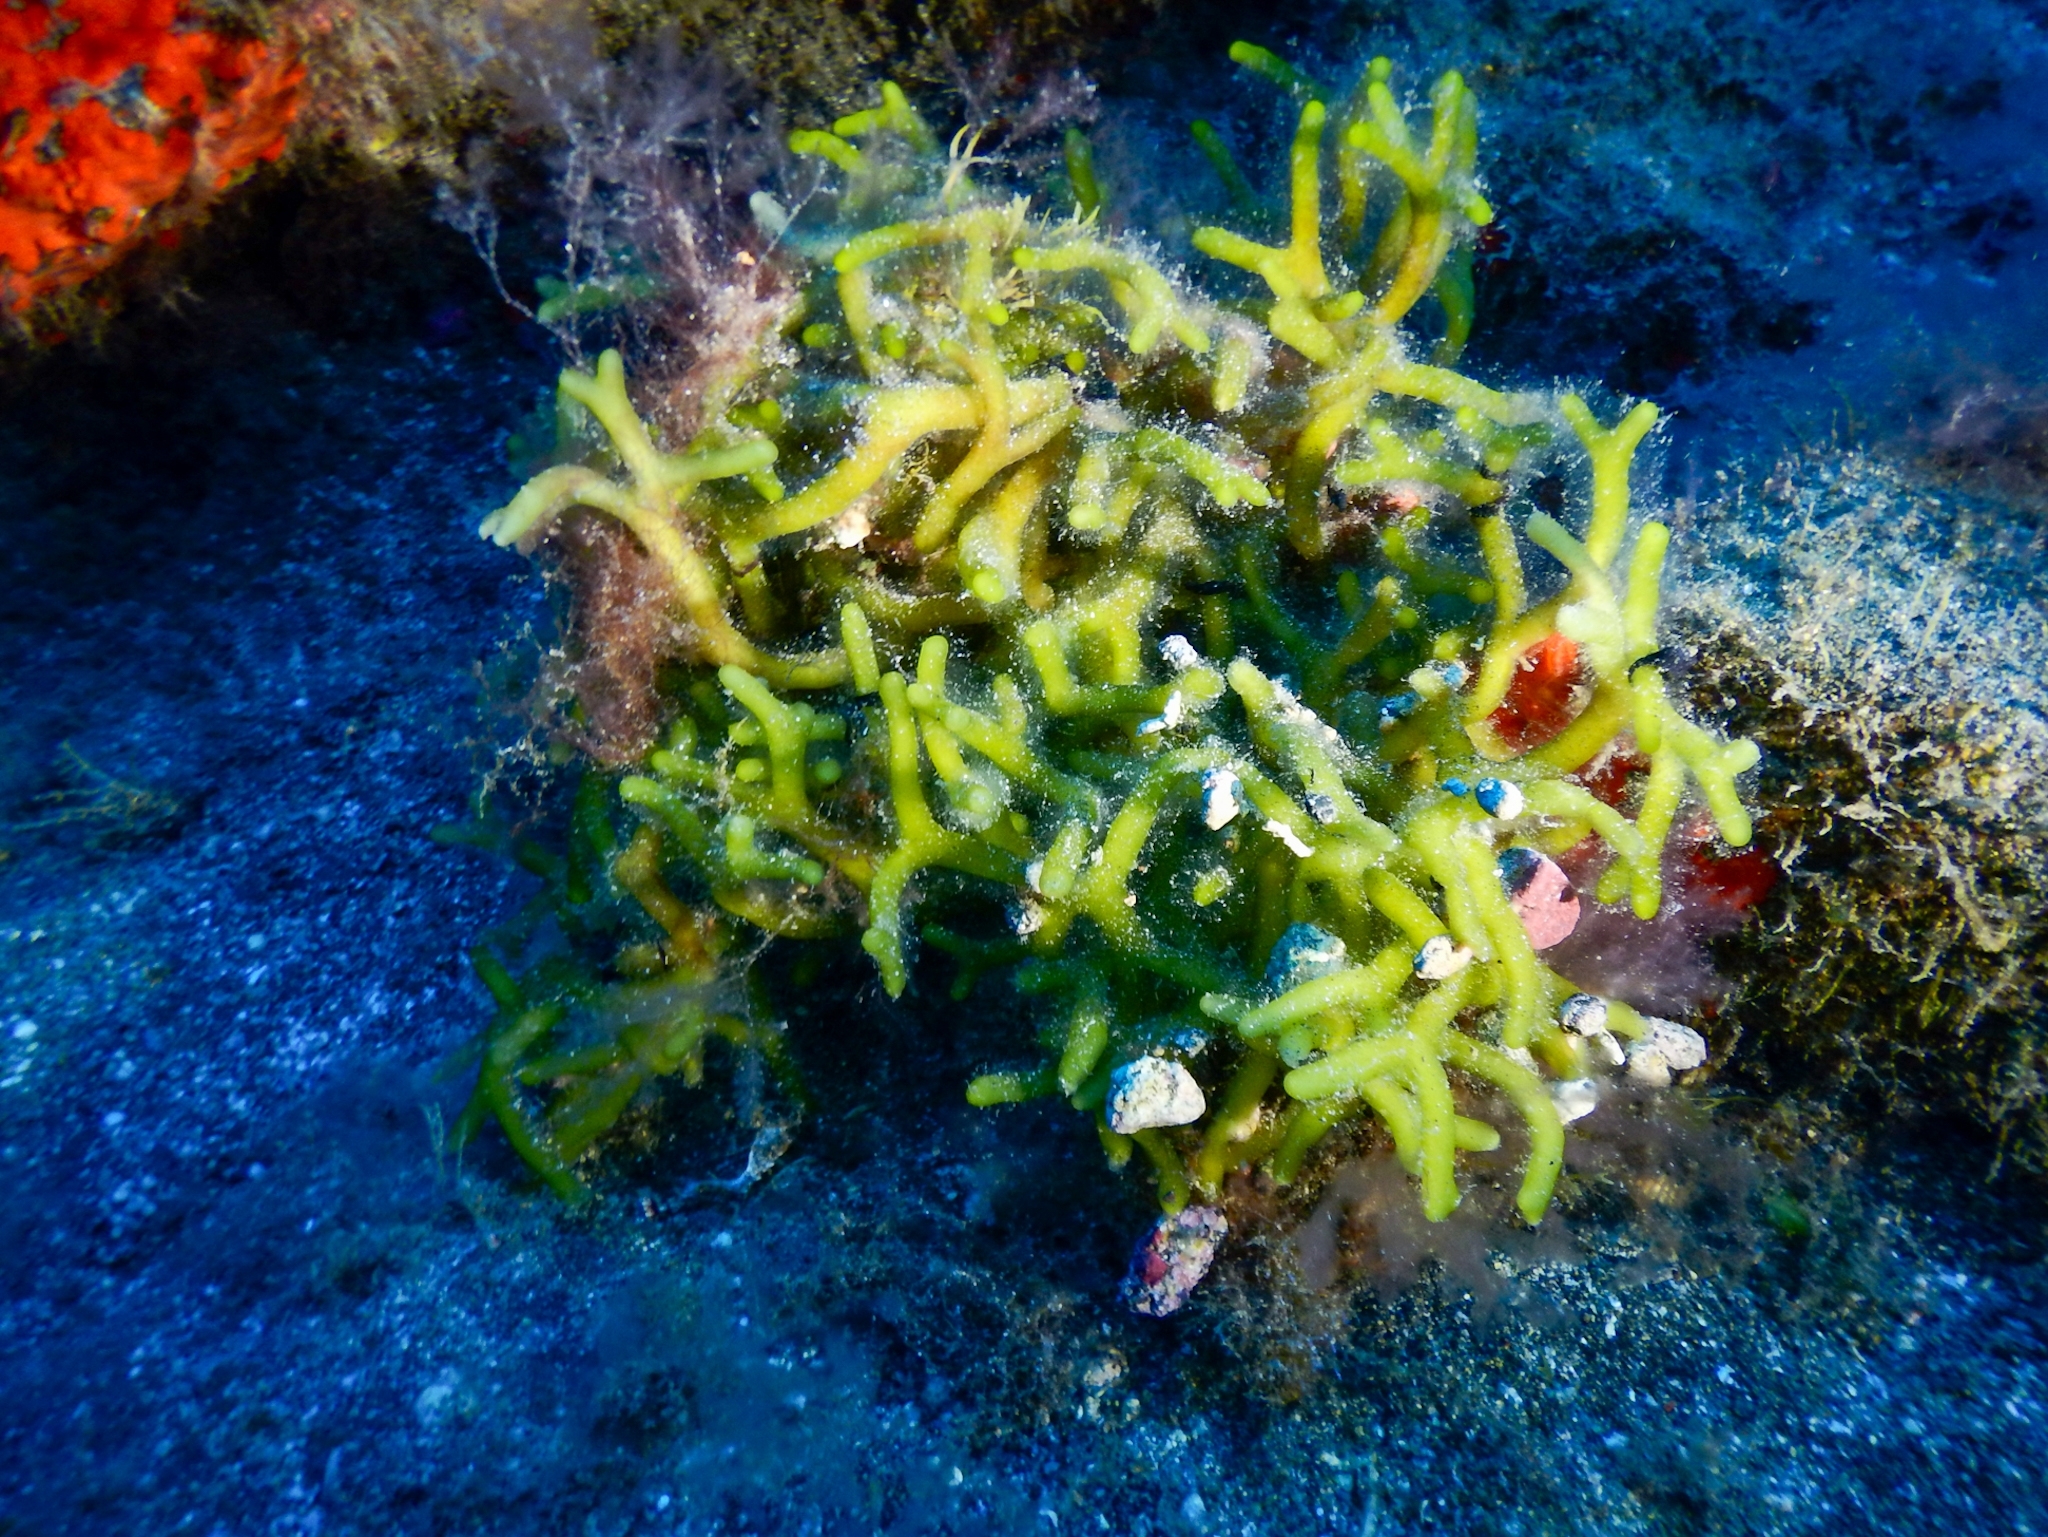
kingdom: Plantae
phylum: Chlorophyta
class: Ulvophyceae
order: Bryopsidales
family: Codiaceae
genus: Codium
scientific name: Codium fragile
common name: Dead man's fingers
